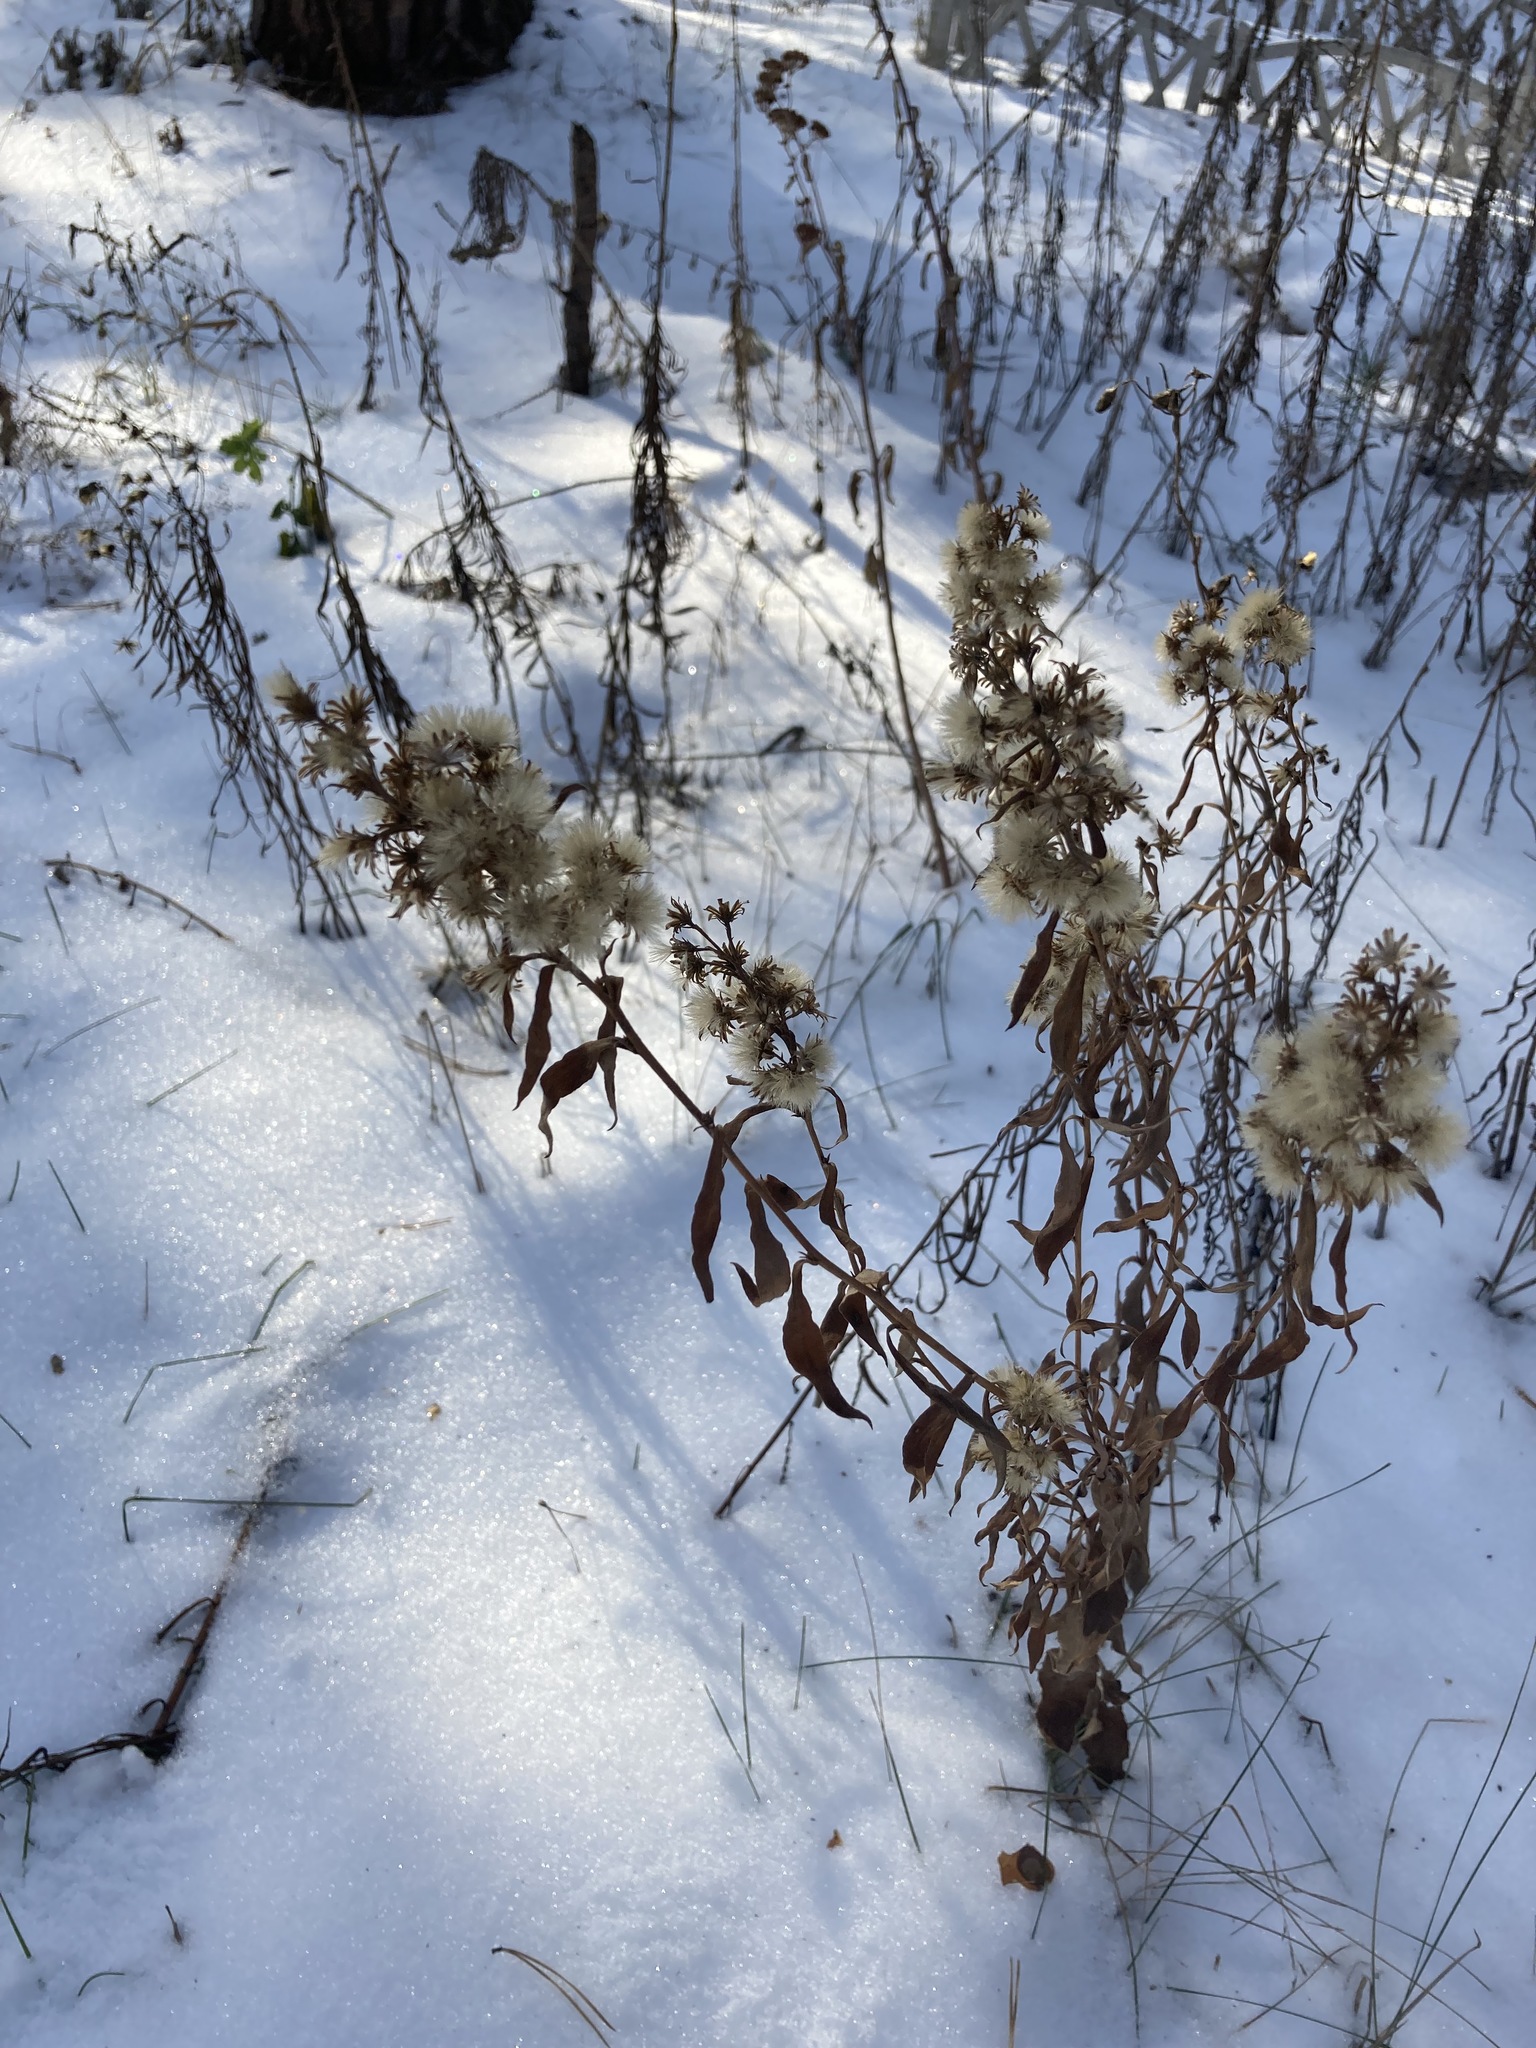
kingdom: Plantae
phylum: Tracheophyta
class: Magnoliopsida
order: Asterales
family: Asteraceae
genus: Solidago
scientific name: Solidago virgaurea
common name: Goldenrod
